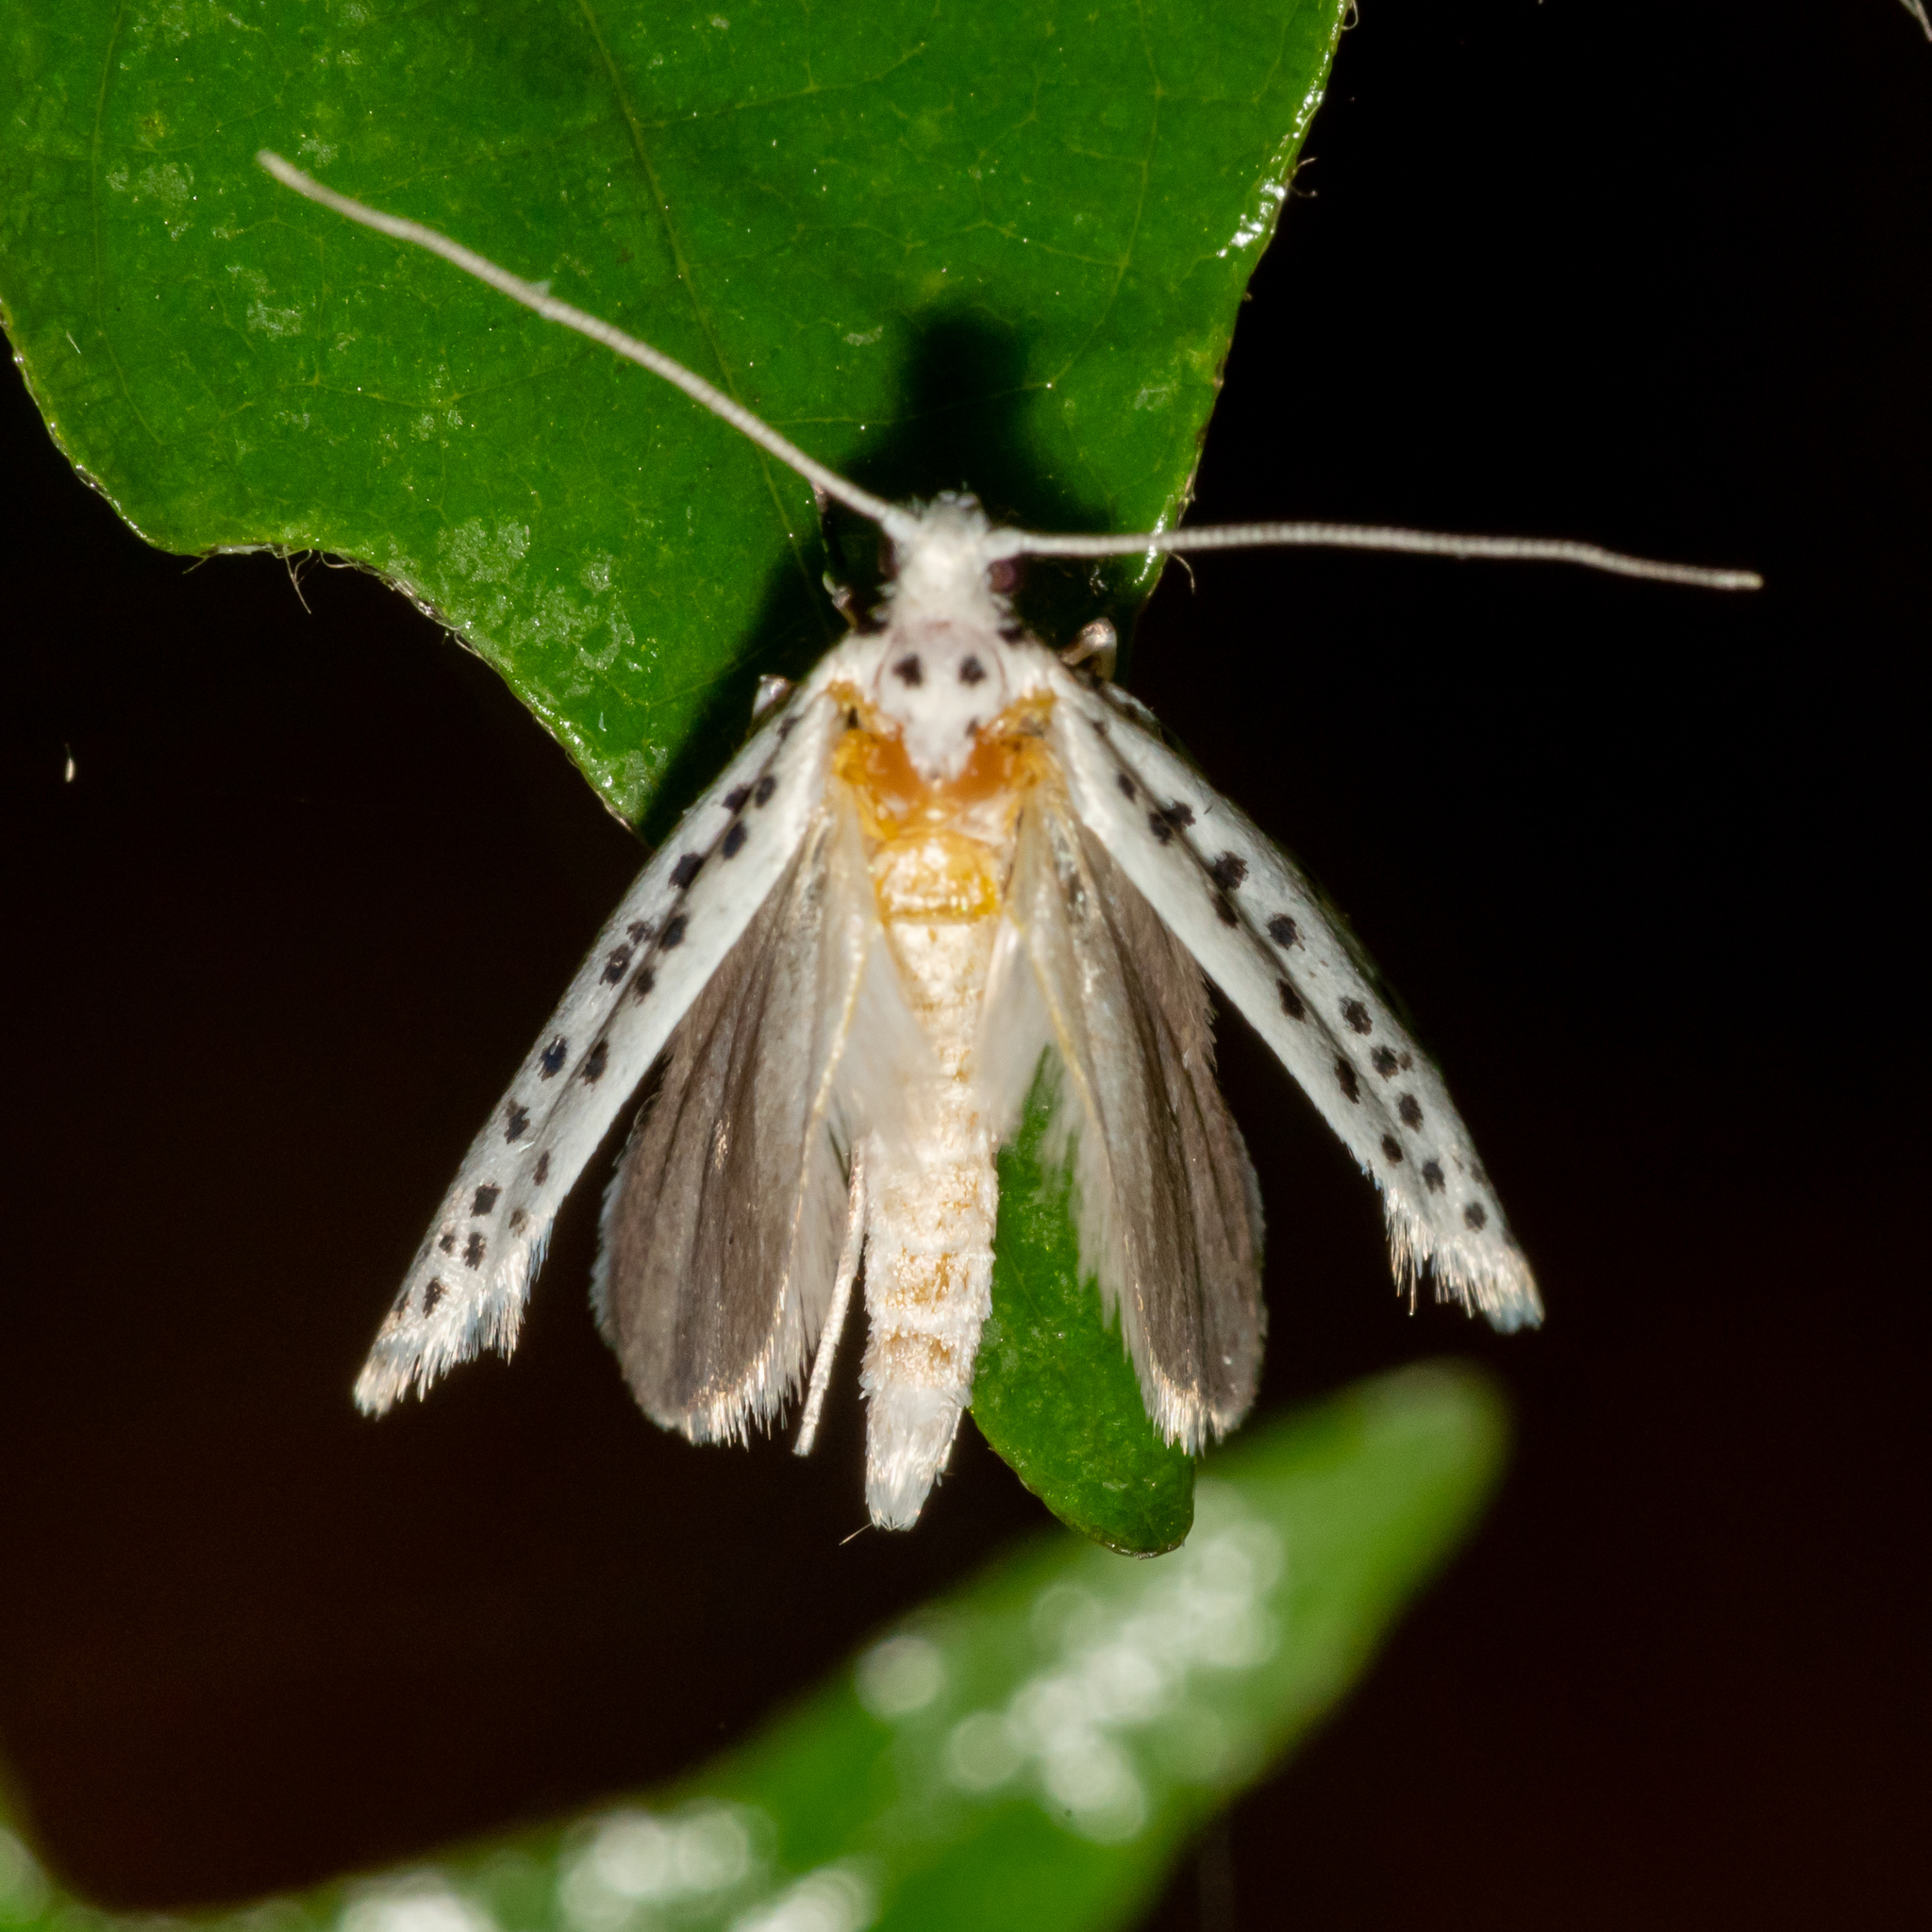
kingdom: Animalia
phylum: Arthropoda
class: Insecta
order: Lepidoptera
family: Yponomeutidae
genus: Yponomeuta
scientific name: Yponomeuta multipunctella
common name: American ermine moth
